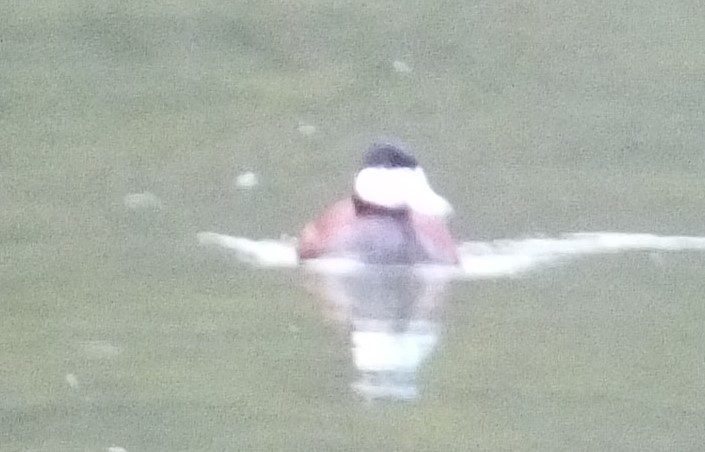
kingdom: Animalia
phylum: Chordata
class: Aves
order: Anseriformes
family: Anatidae
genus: Oxyura
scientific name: Oxyura jamaicensis
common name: Ruddy duck
